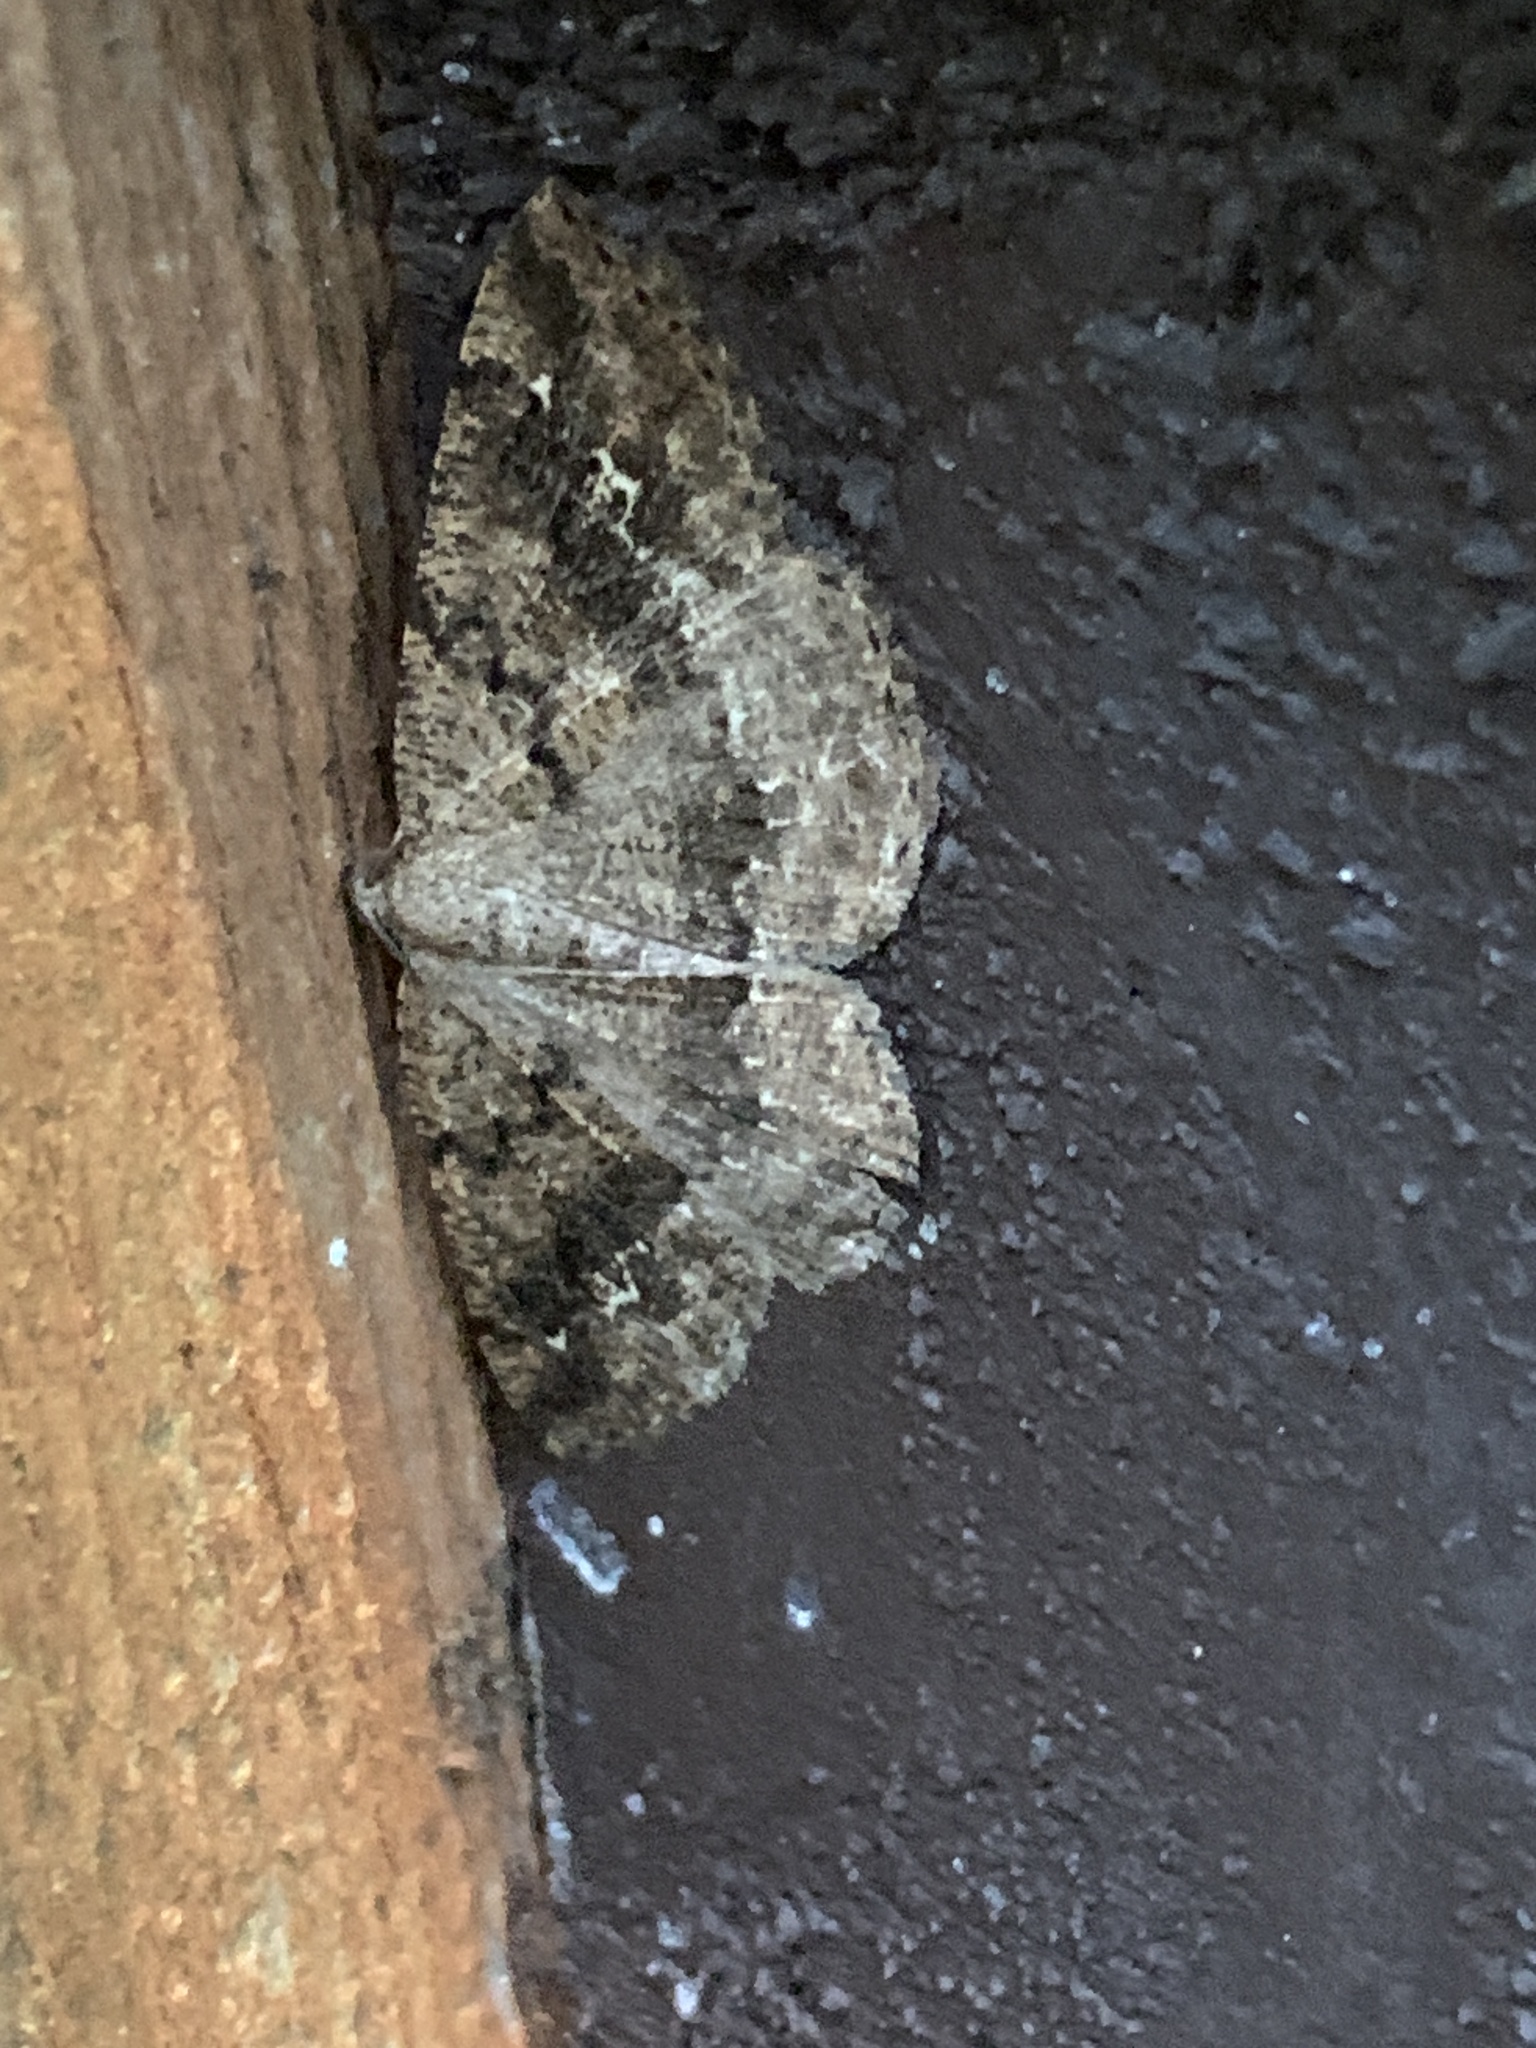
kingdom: Animalia
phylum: Arthropoda
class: Insecta
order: Lepidoptera
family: Geometridae
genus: Homochlodes
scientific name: Homochlodes fritillaria
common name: Pale homochlodes
